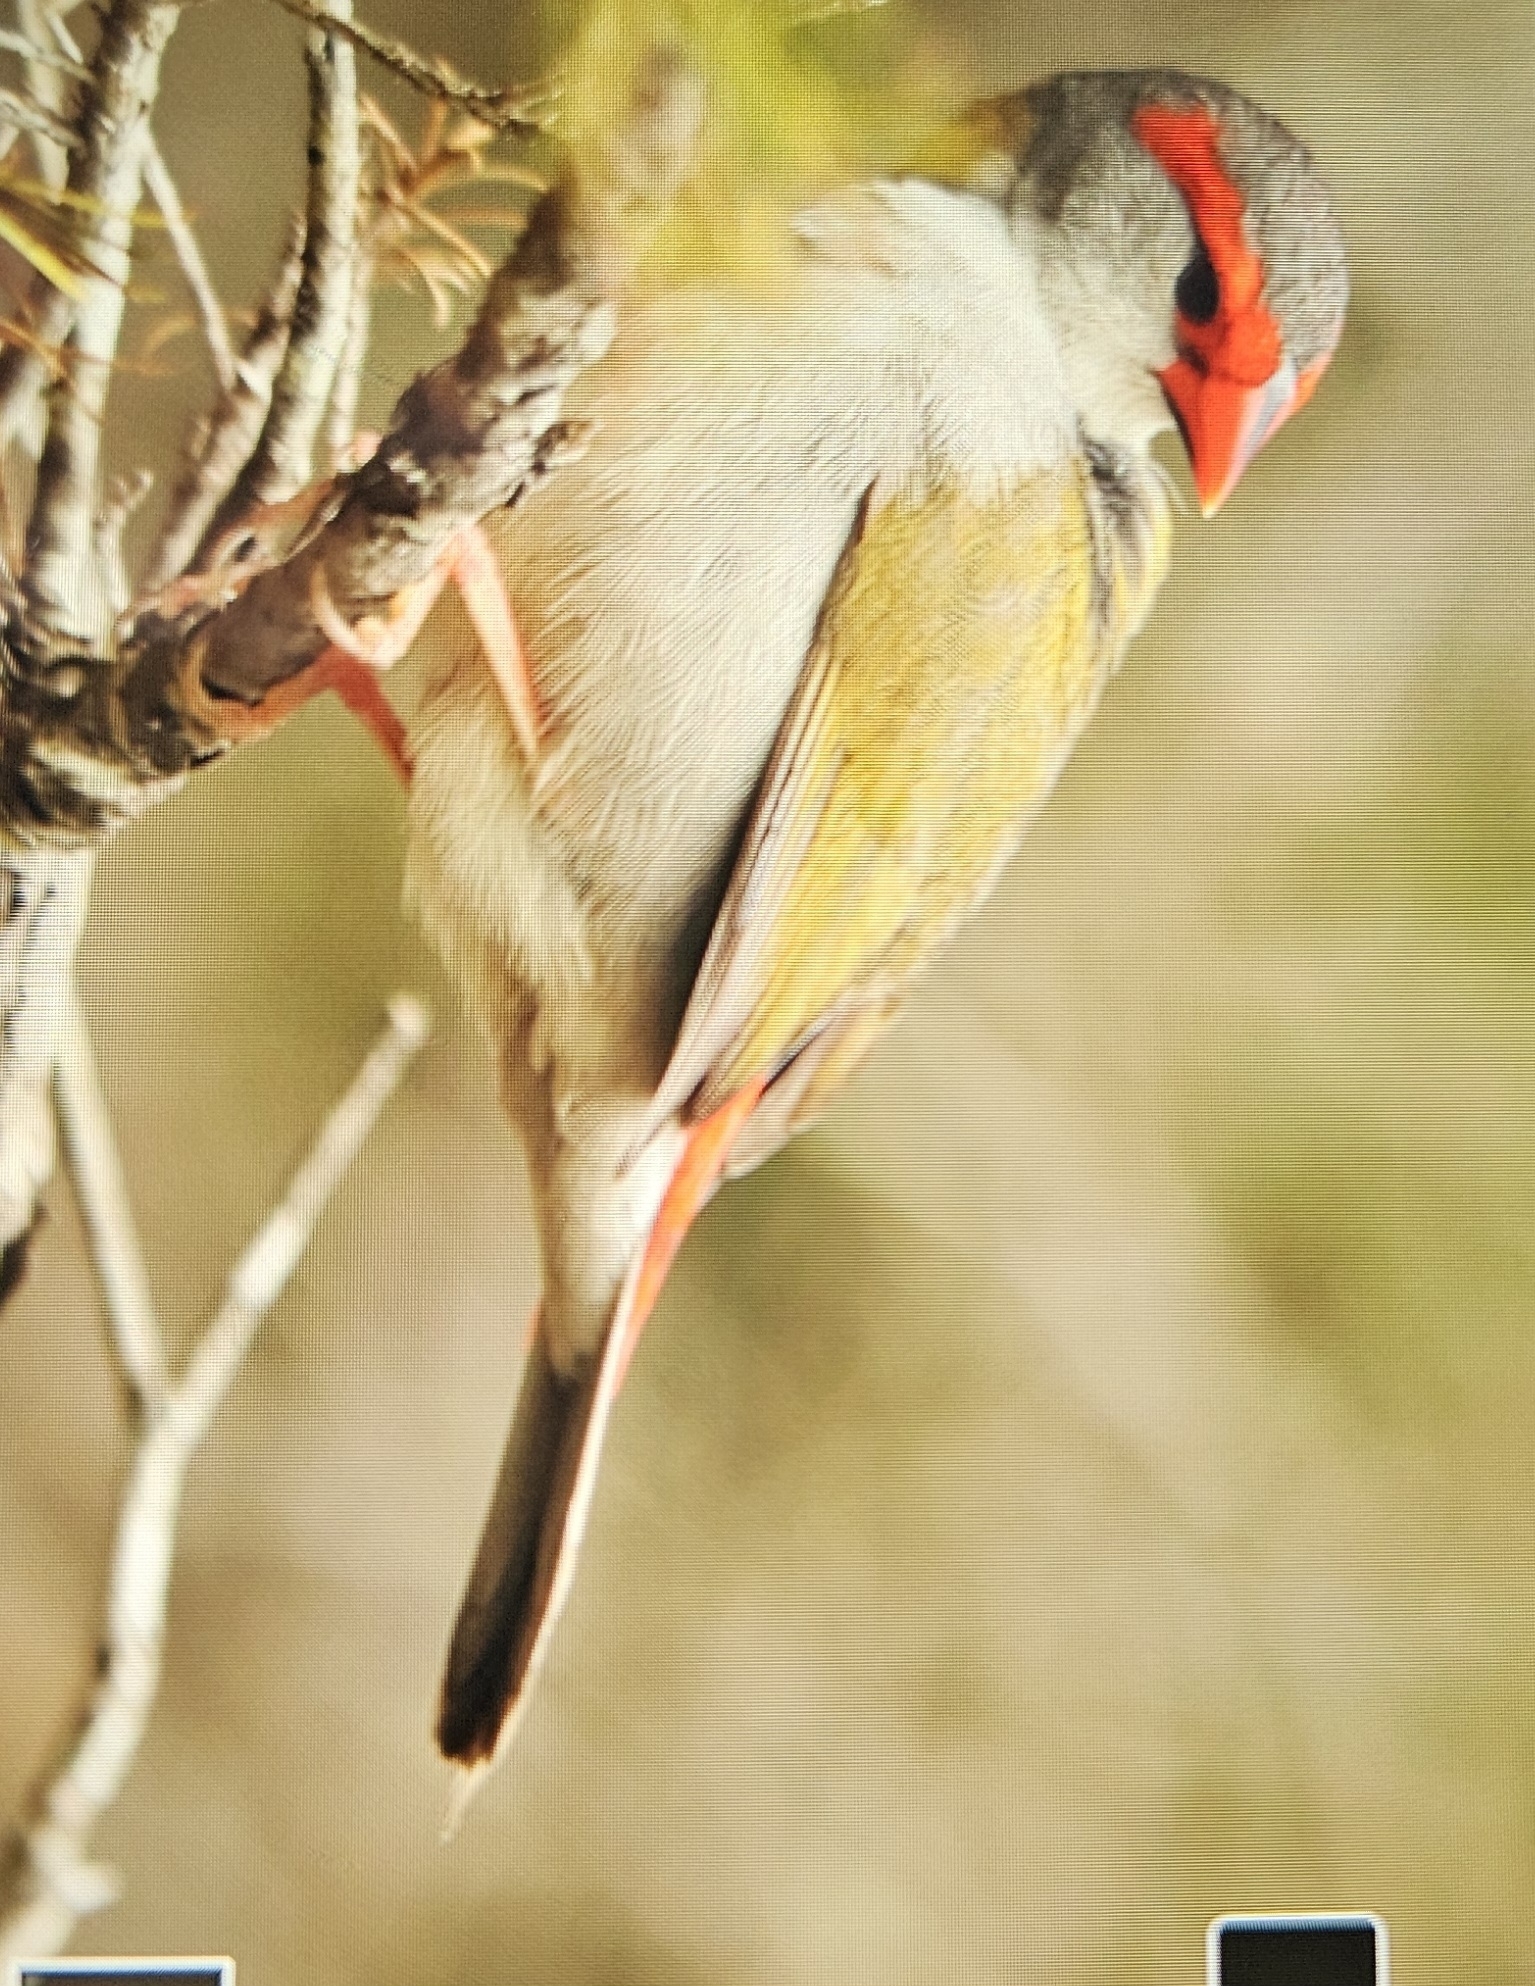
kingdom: Animalia
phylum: Chordata
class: Aves
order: Passeriformes
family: Estrildidae
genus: Neochmia
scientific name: Neochmia temporalis
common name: Red-browed finch
